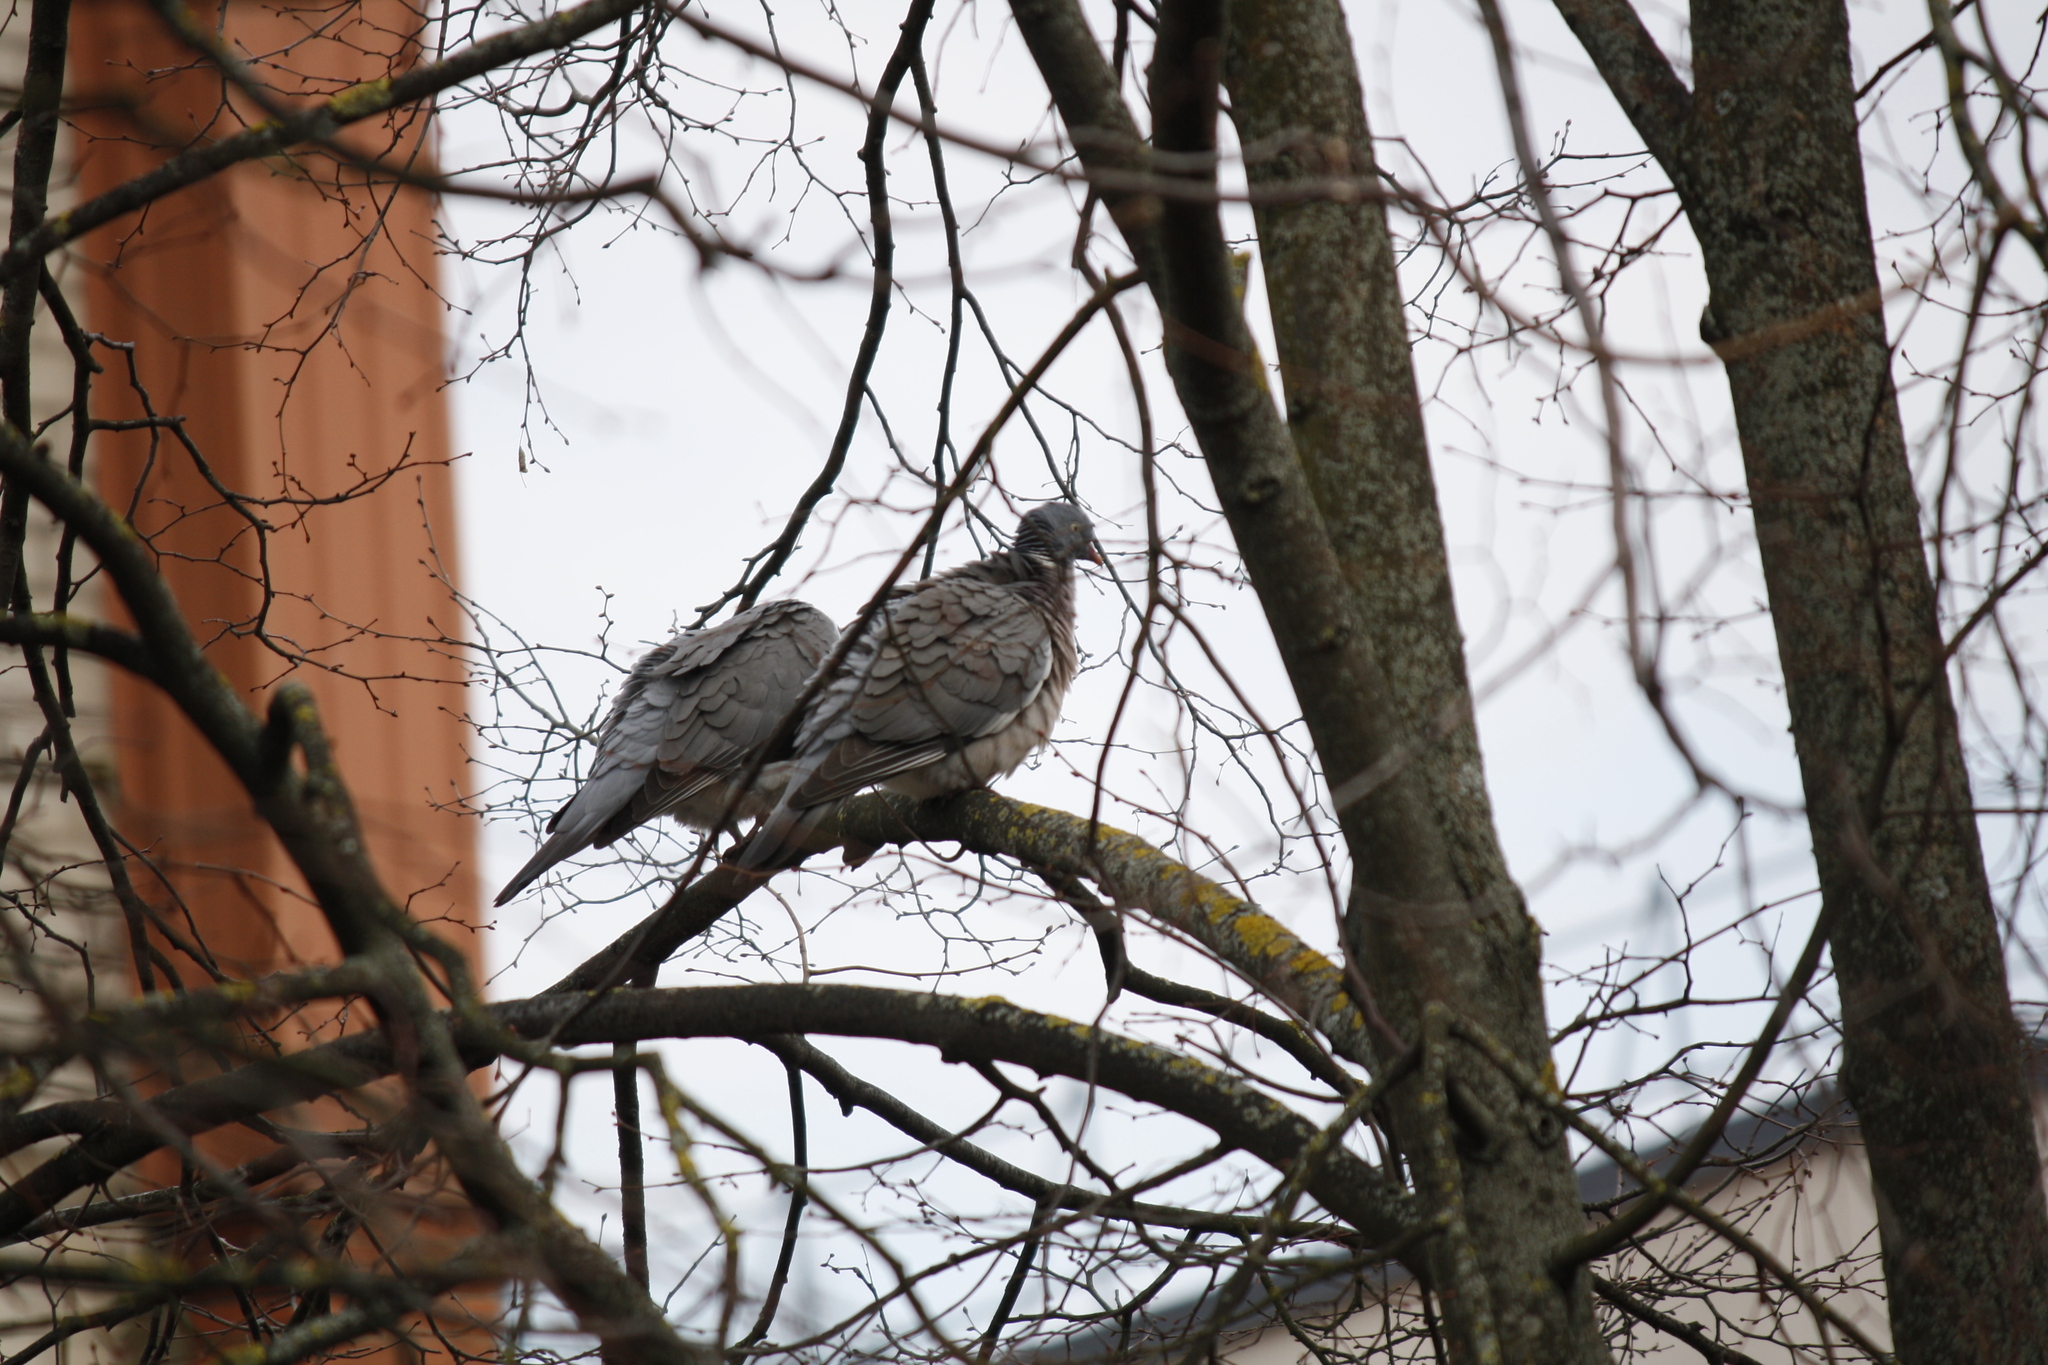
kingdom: Animalia
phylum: Chordata
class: Aves
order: Columbiformes
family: Columbidae
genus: Columba
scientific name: Columba palumbus
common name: Common wood pigeon
